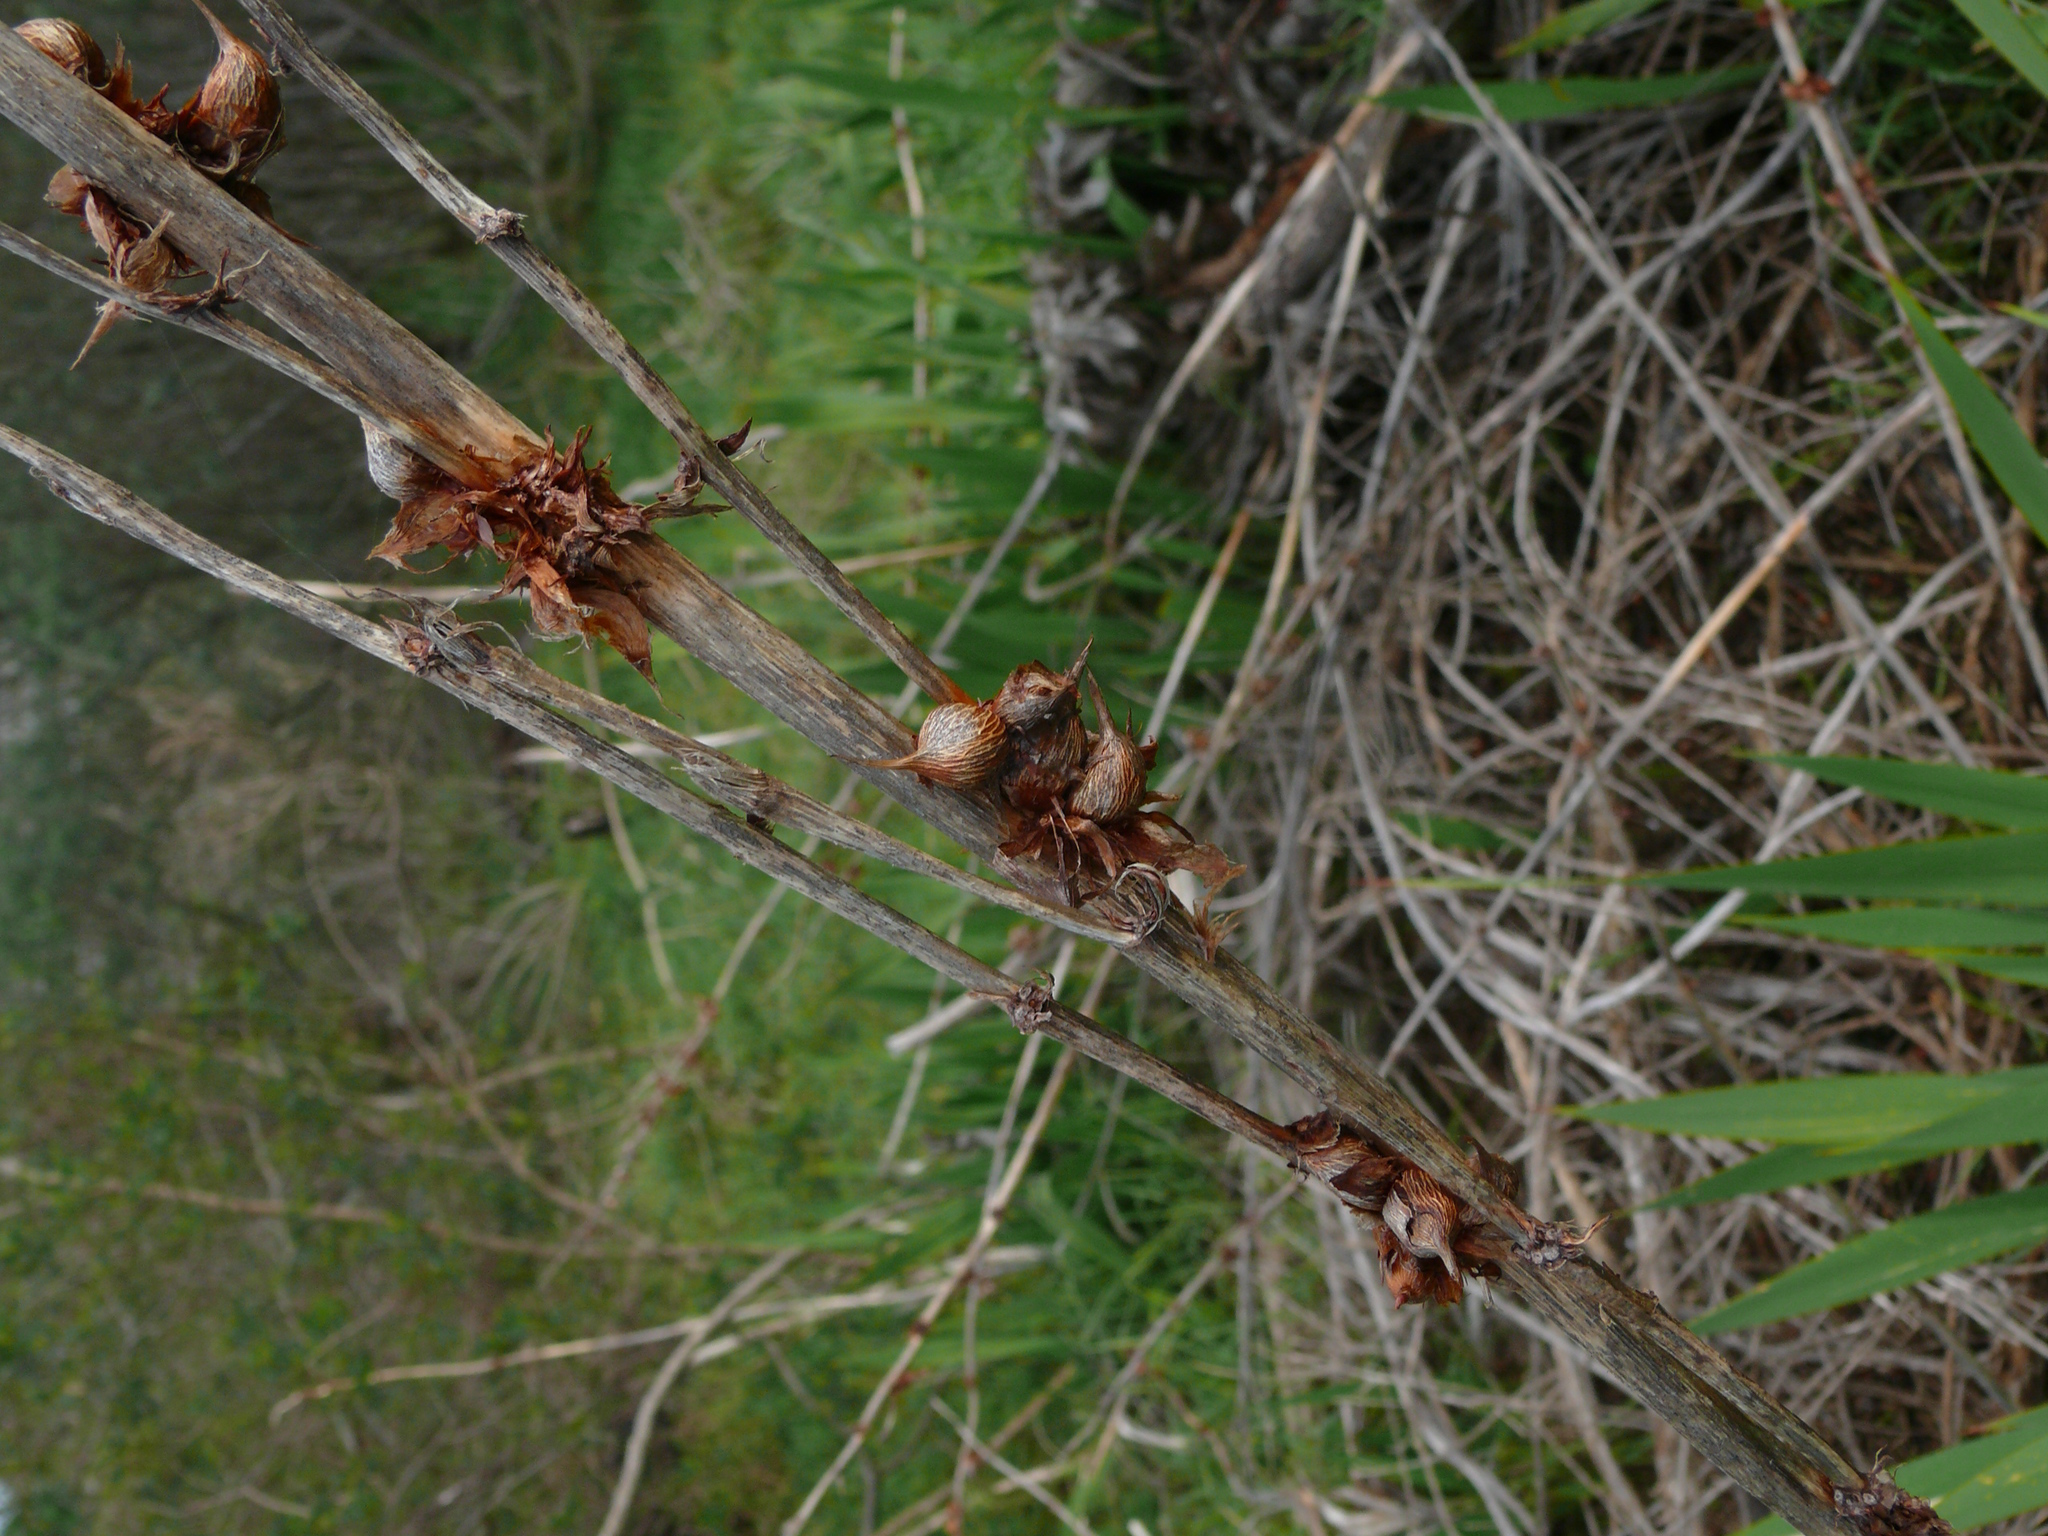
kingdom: Plantae
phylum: Tracheophyta
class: Liliopsida
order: Asparagales
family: Iridaceae
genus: Watsonia
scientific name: Watsonia meriana
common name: Bulbil bugle-lily
